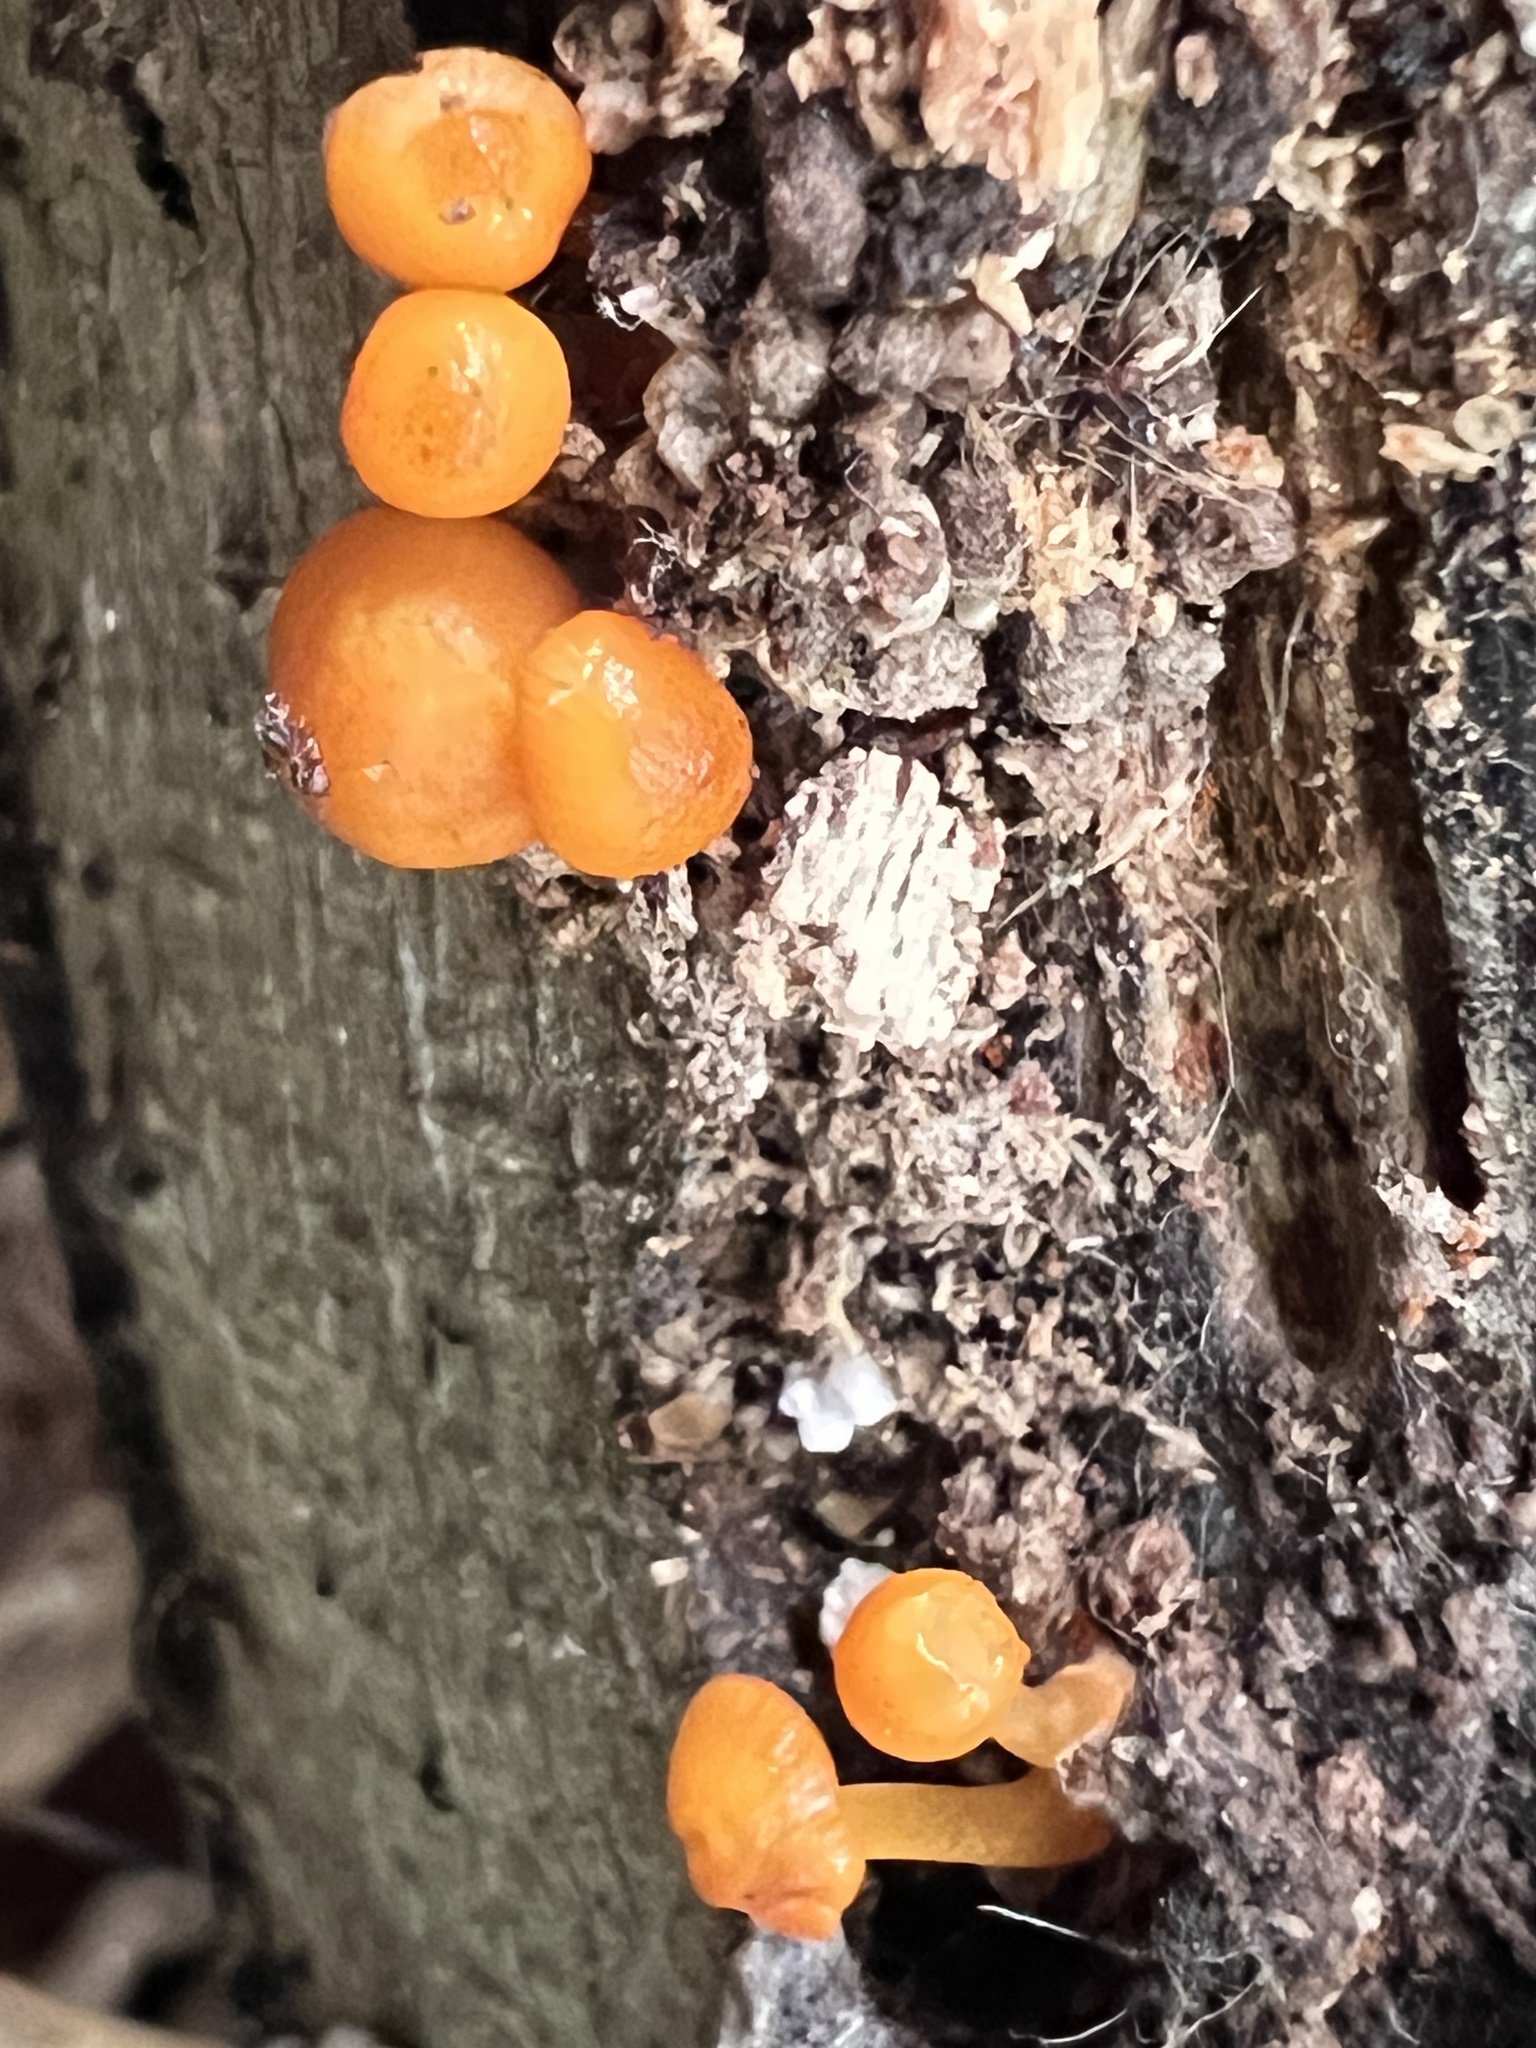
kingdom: Fungi
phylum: Basidiomycota
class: Agaricomycetes
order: Agaricales
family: Mycenaceae
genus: Mycena
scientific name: Mycena leaiana
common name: Orange mycena
